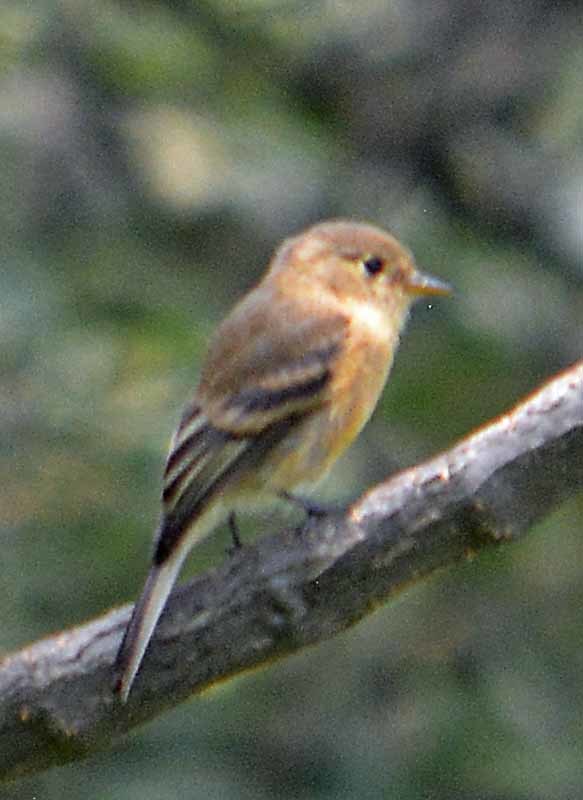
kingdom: Animalia
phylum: Chordata
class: Aves
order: Passeriformes
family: Tyrannidae
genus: Empidonax
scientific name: Empidonax fulvifrons
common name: Buff-breasted flycatcher
